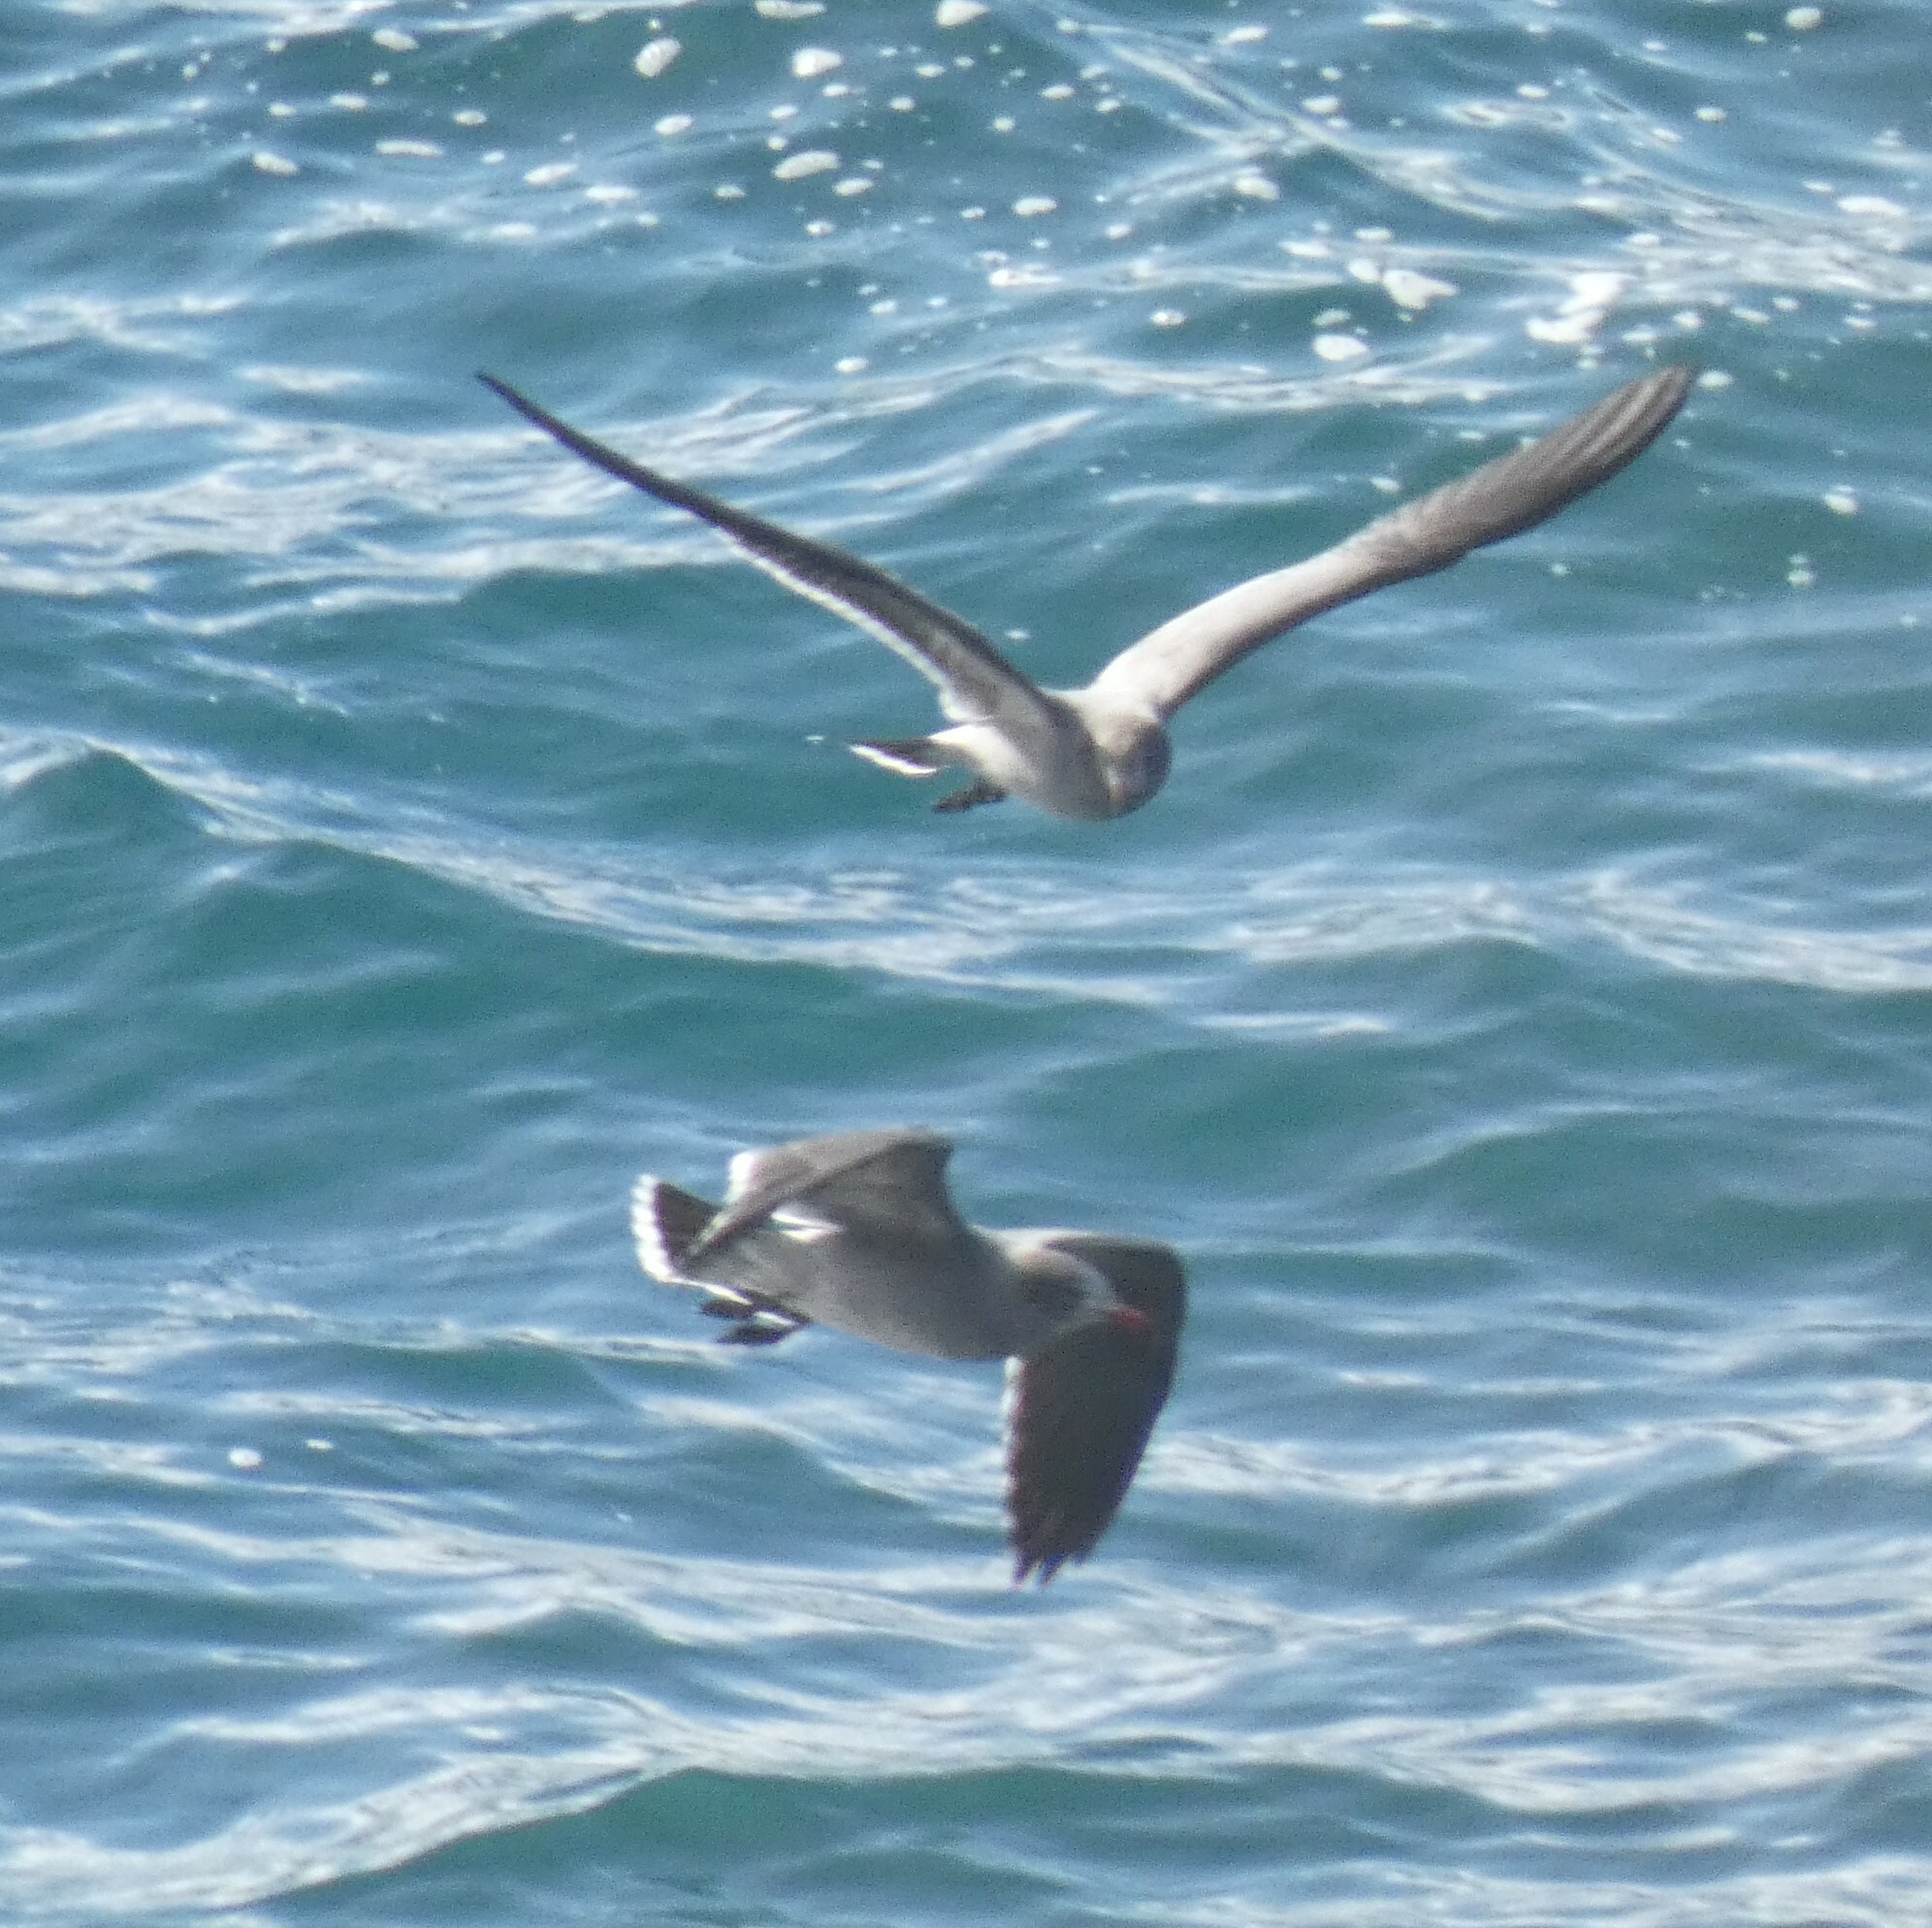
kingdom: Animalia
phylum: Chordata
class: Aves
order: Charadriiformes
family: Laridae
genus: Larus
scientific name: Larus heermanni
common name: Heermann's gull
